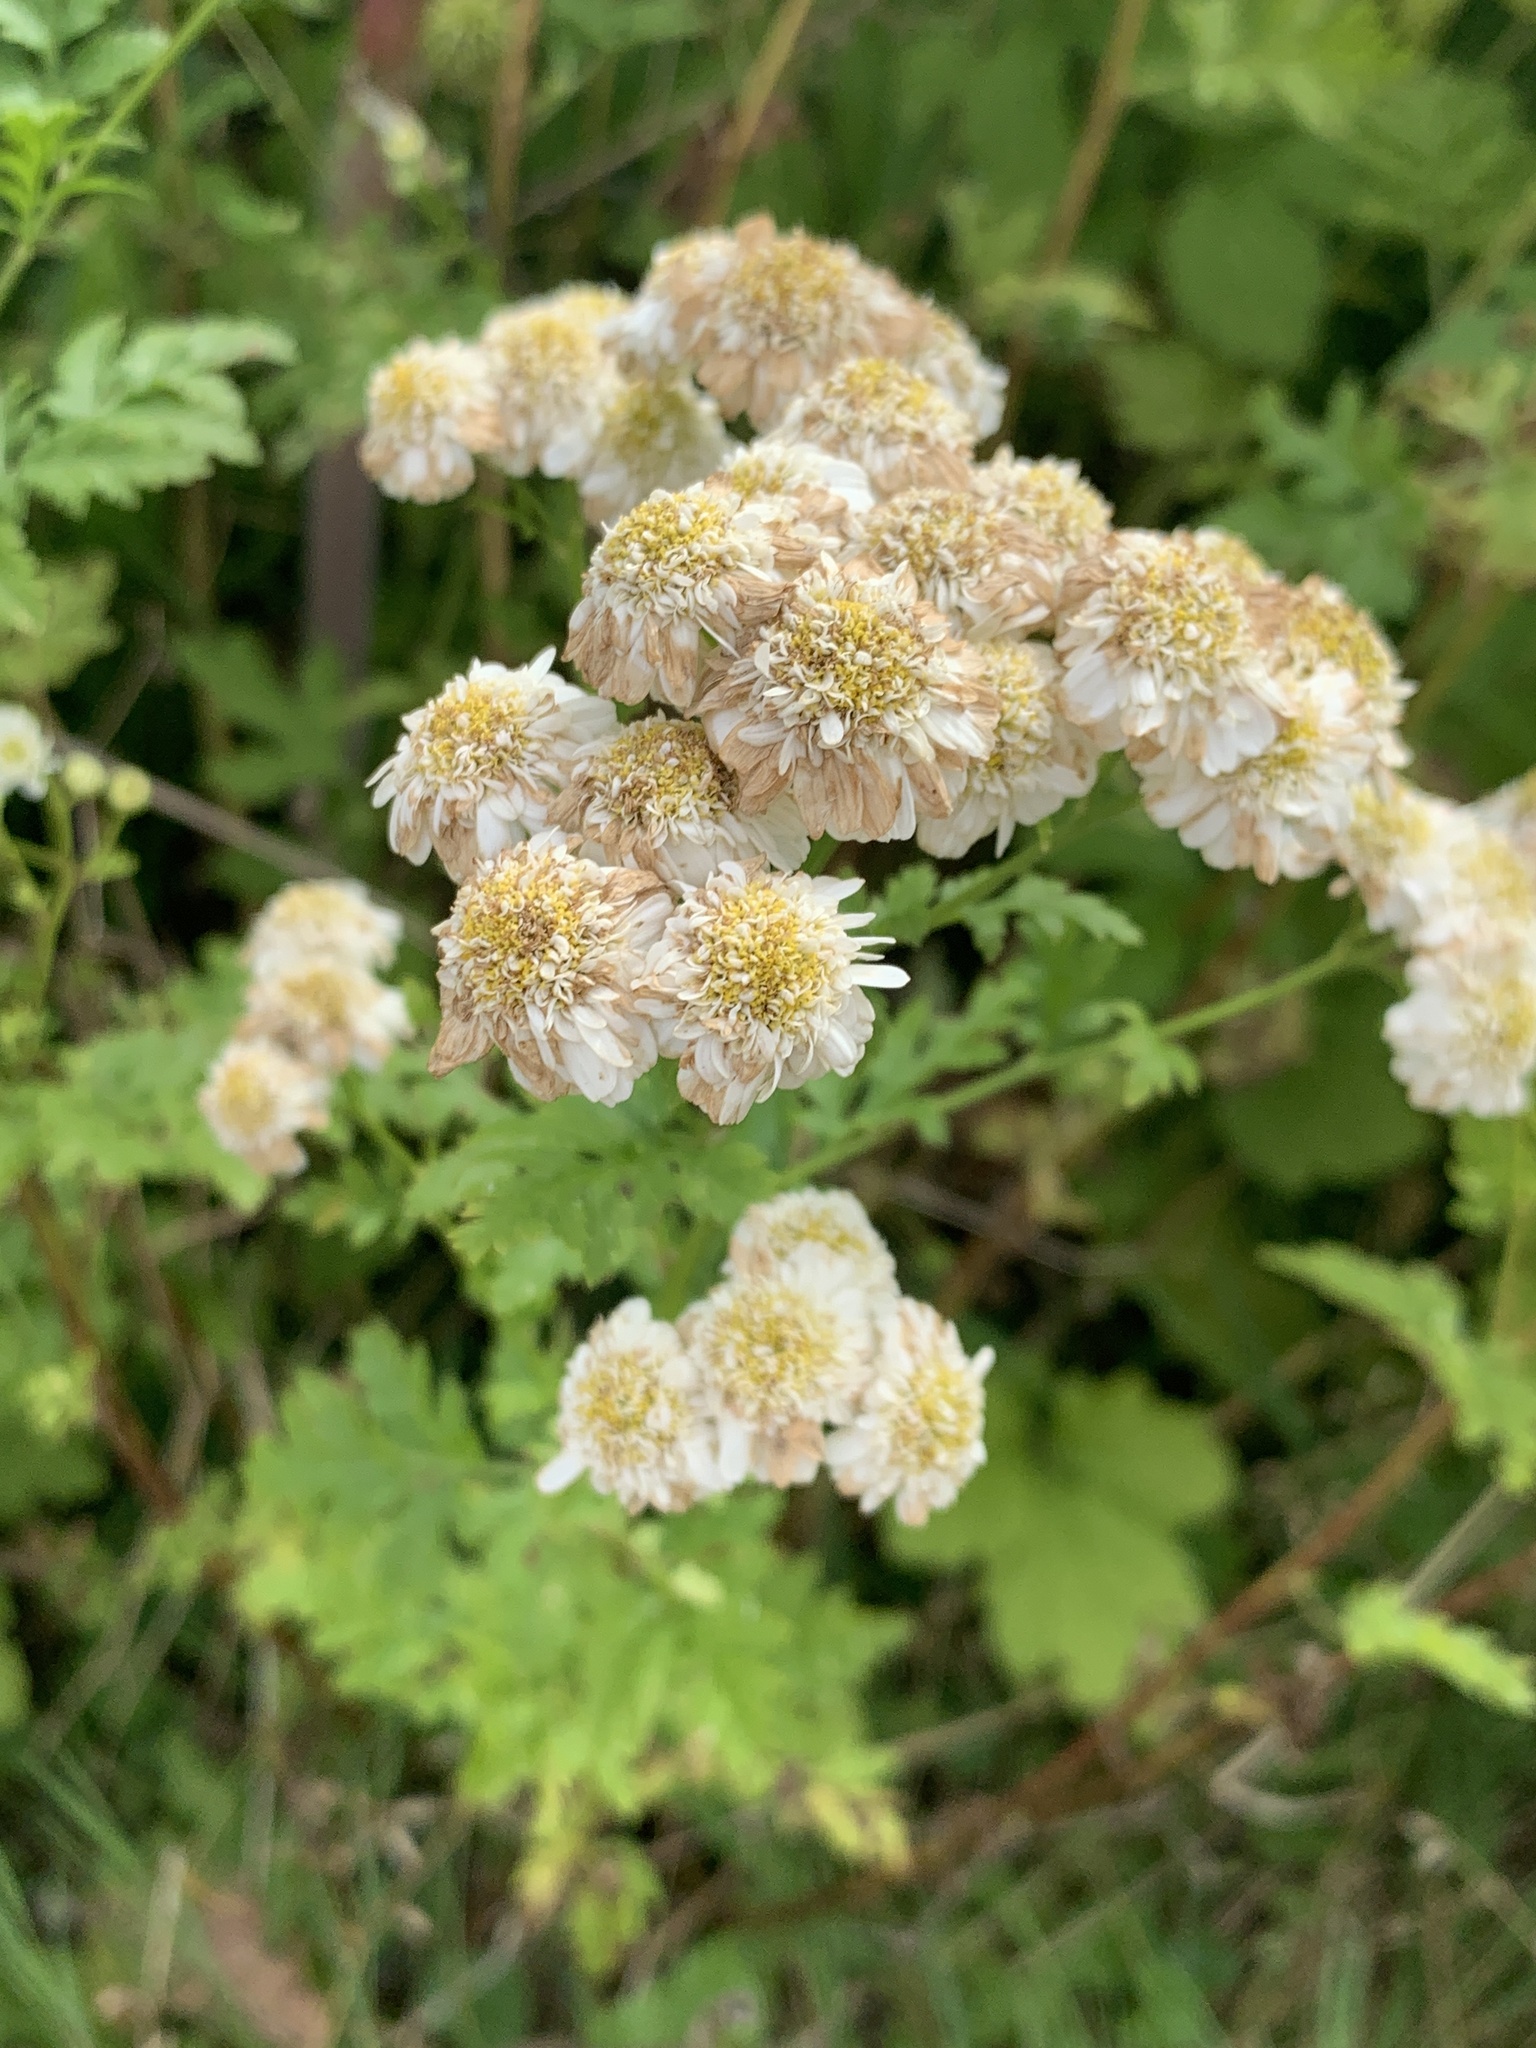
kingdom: Plantae
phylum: Tracheophyta
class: Magnoliopsida
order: Asterales
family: Asteraceae
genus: Tanacetum
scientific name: Tanacetum parthenium
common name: Feverfew
